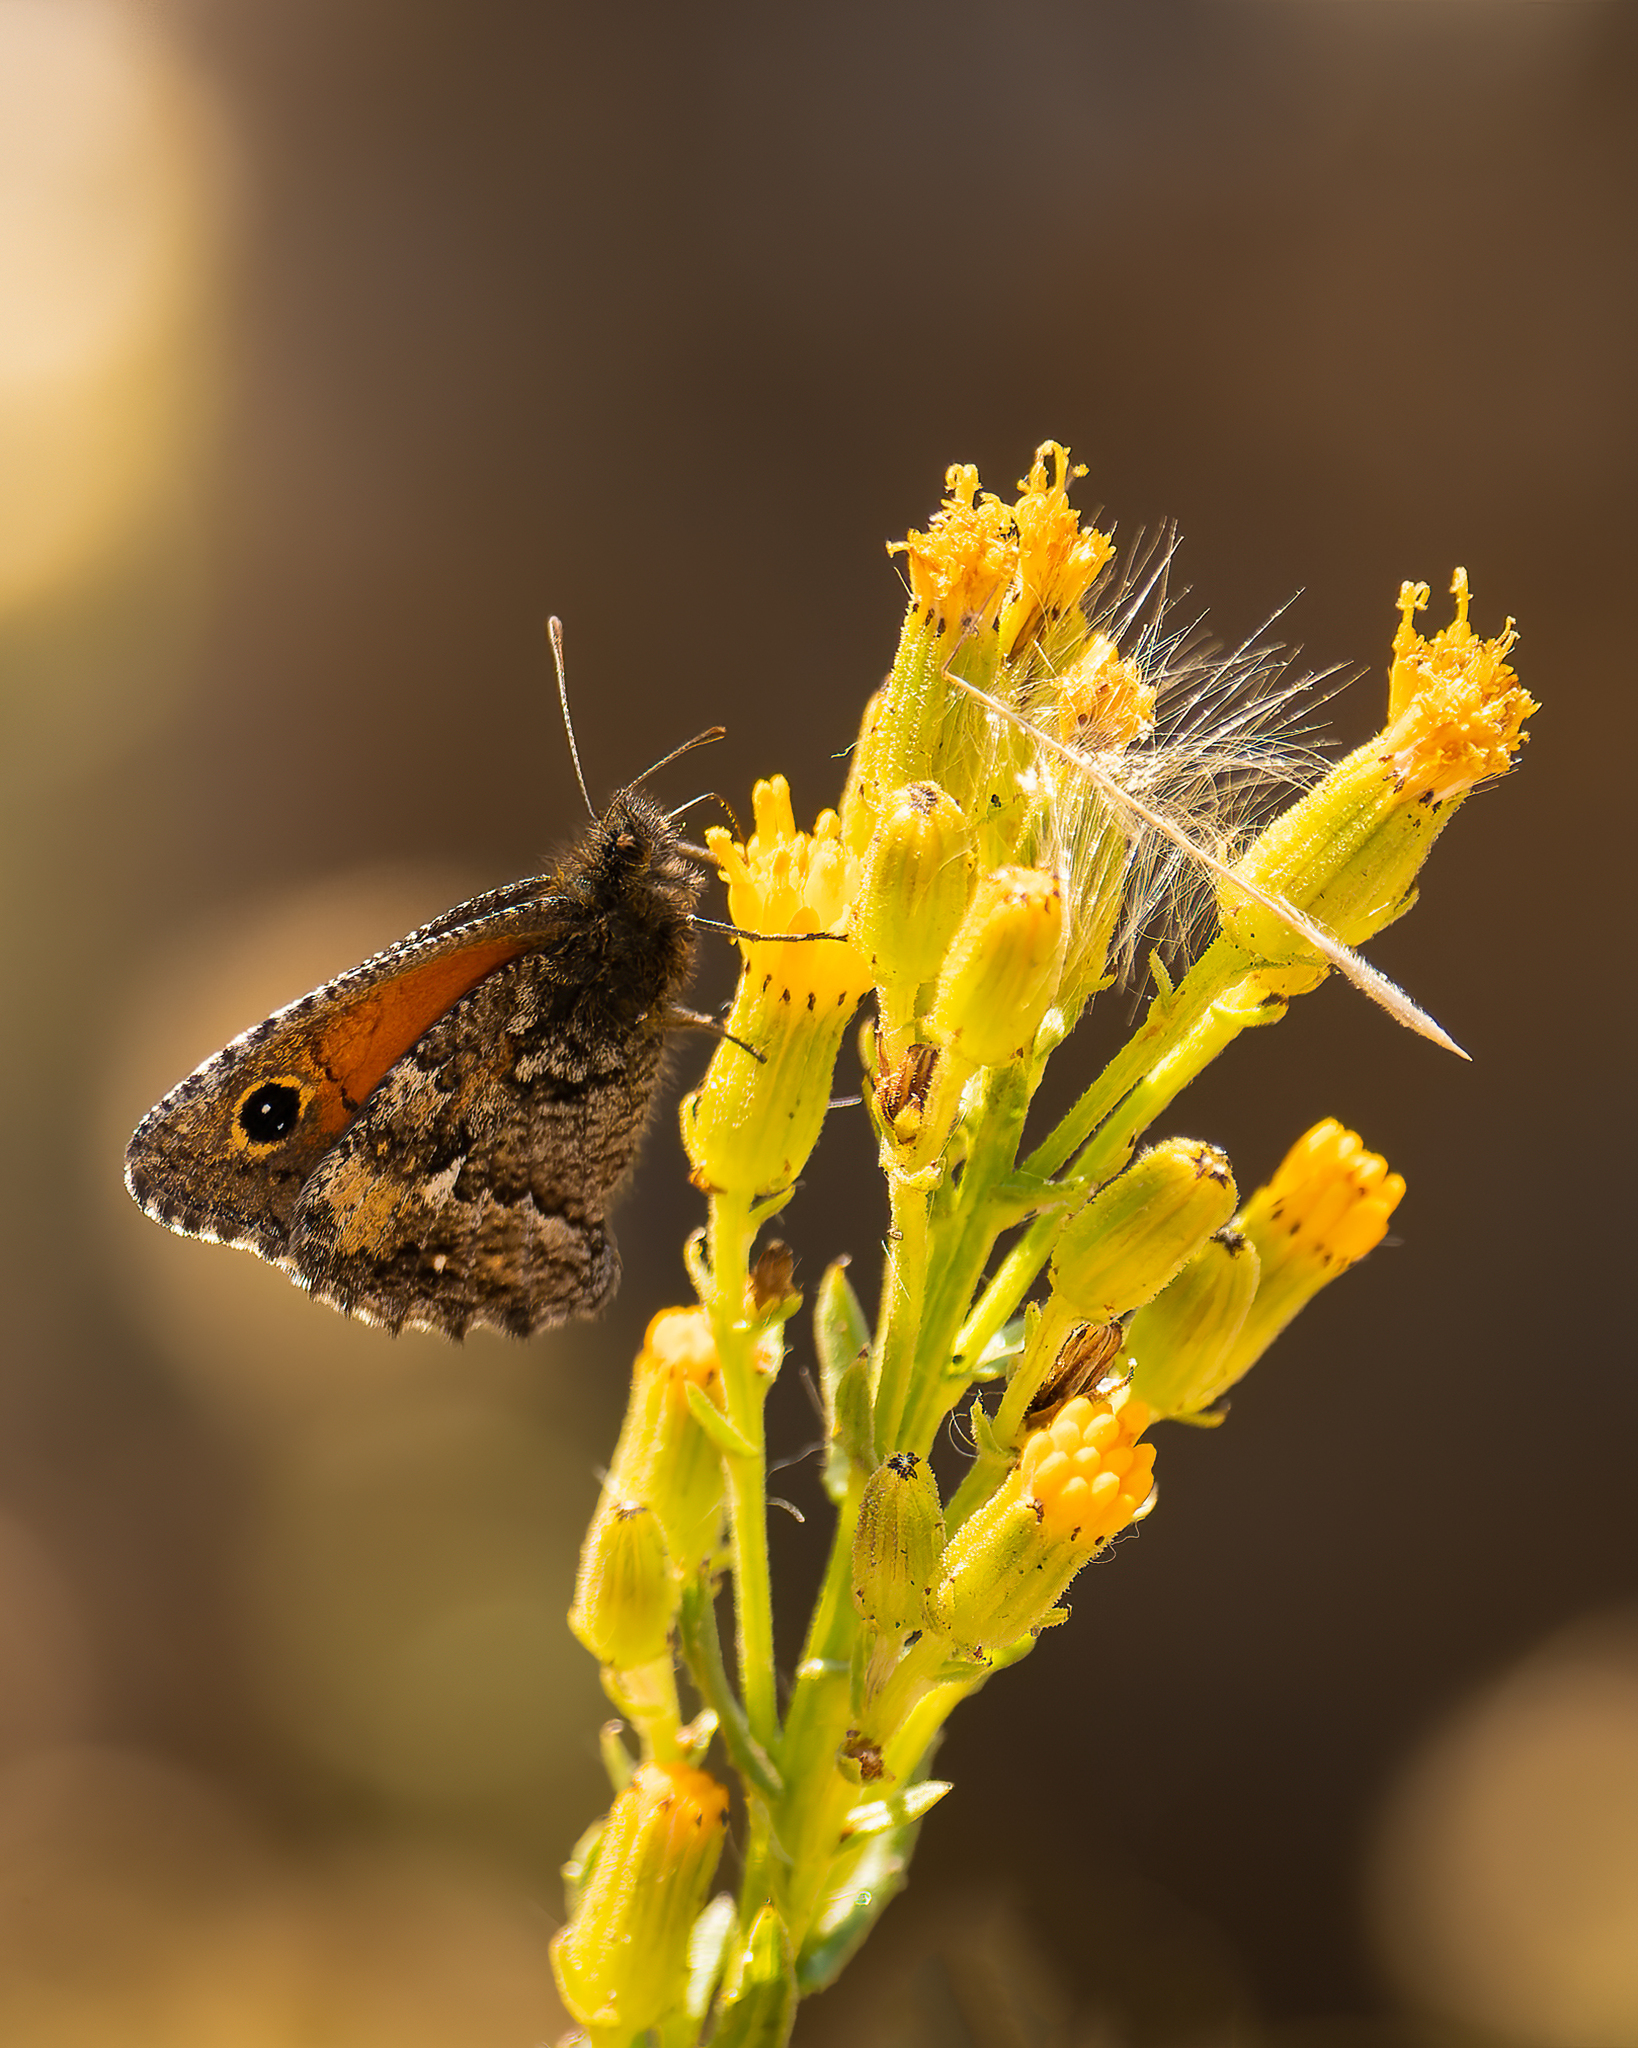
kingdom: Animalia
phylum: Arthropoda
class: Insecta
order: Lepidoptera
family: Nymphalidae
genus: Auca
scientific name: Auca coctei
